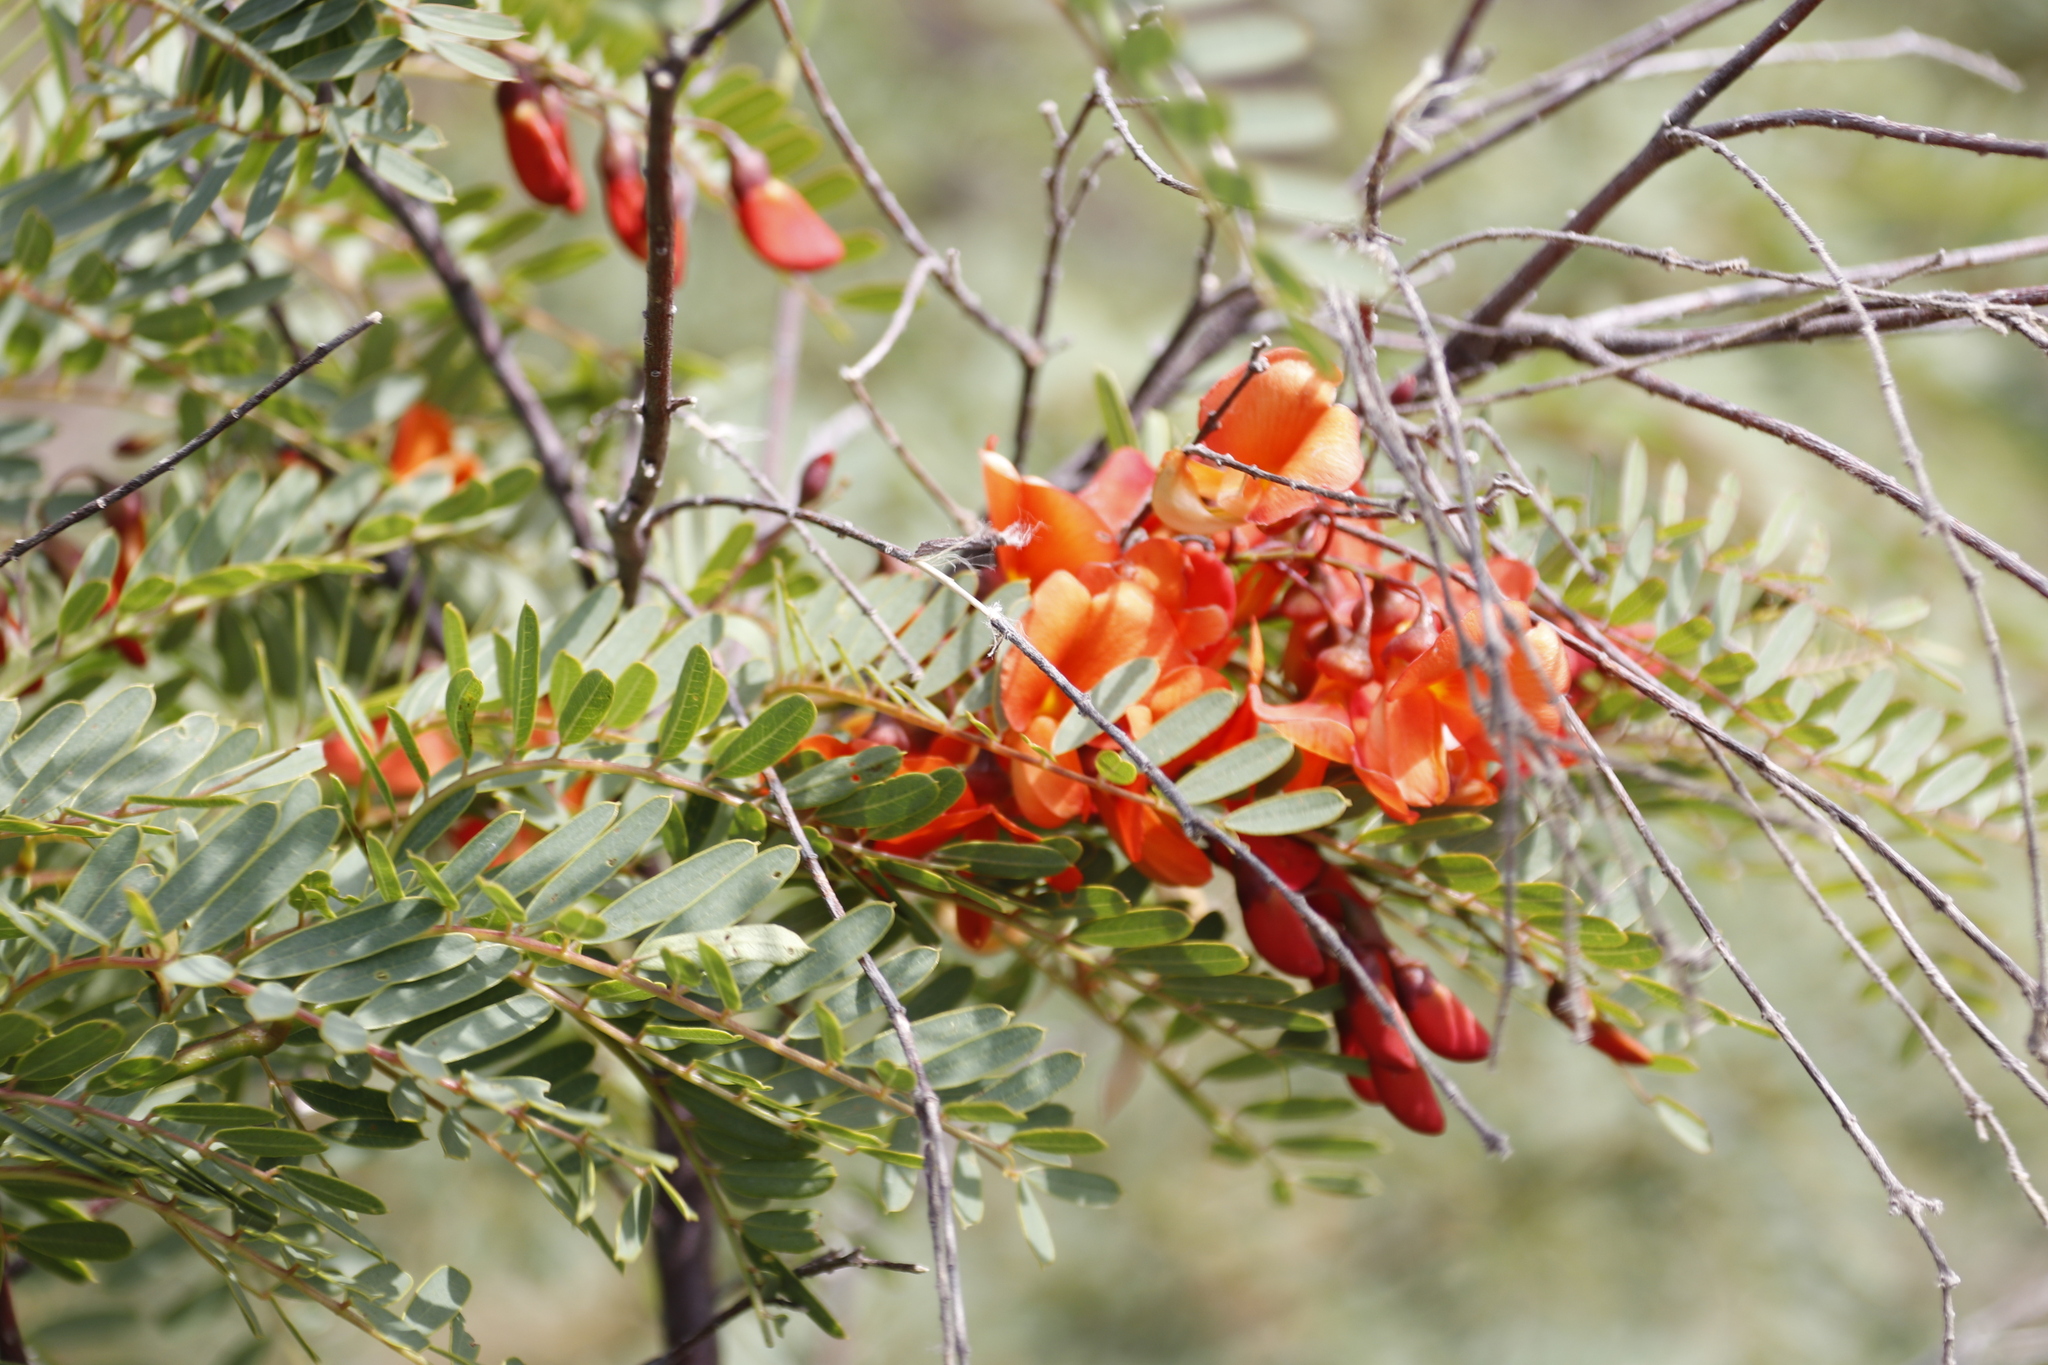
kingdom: Plantae
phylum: Tracheophyta
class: Magnoliopsida
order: Fabales
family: Fabaceae
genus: Sesbania
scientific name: Sesbania punicea
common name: Rattlebox
